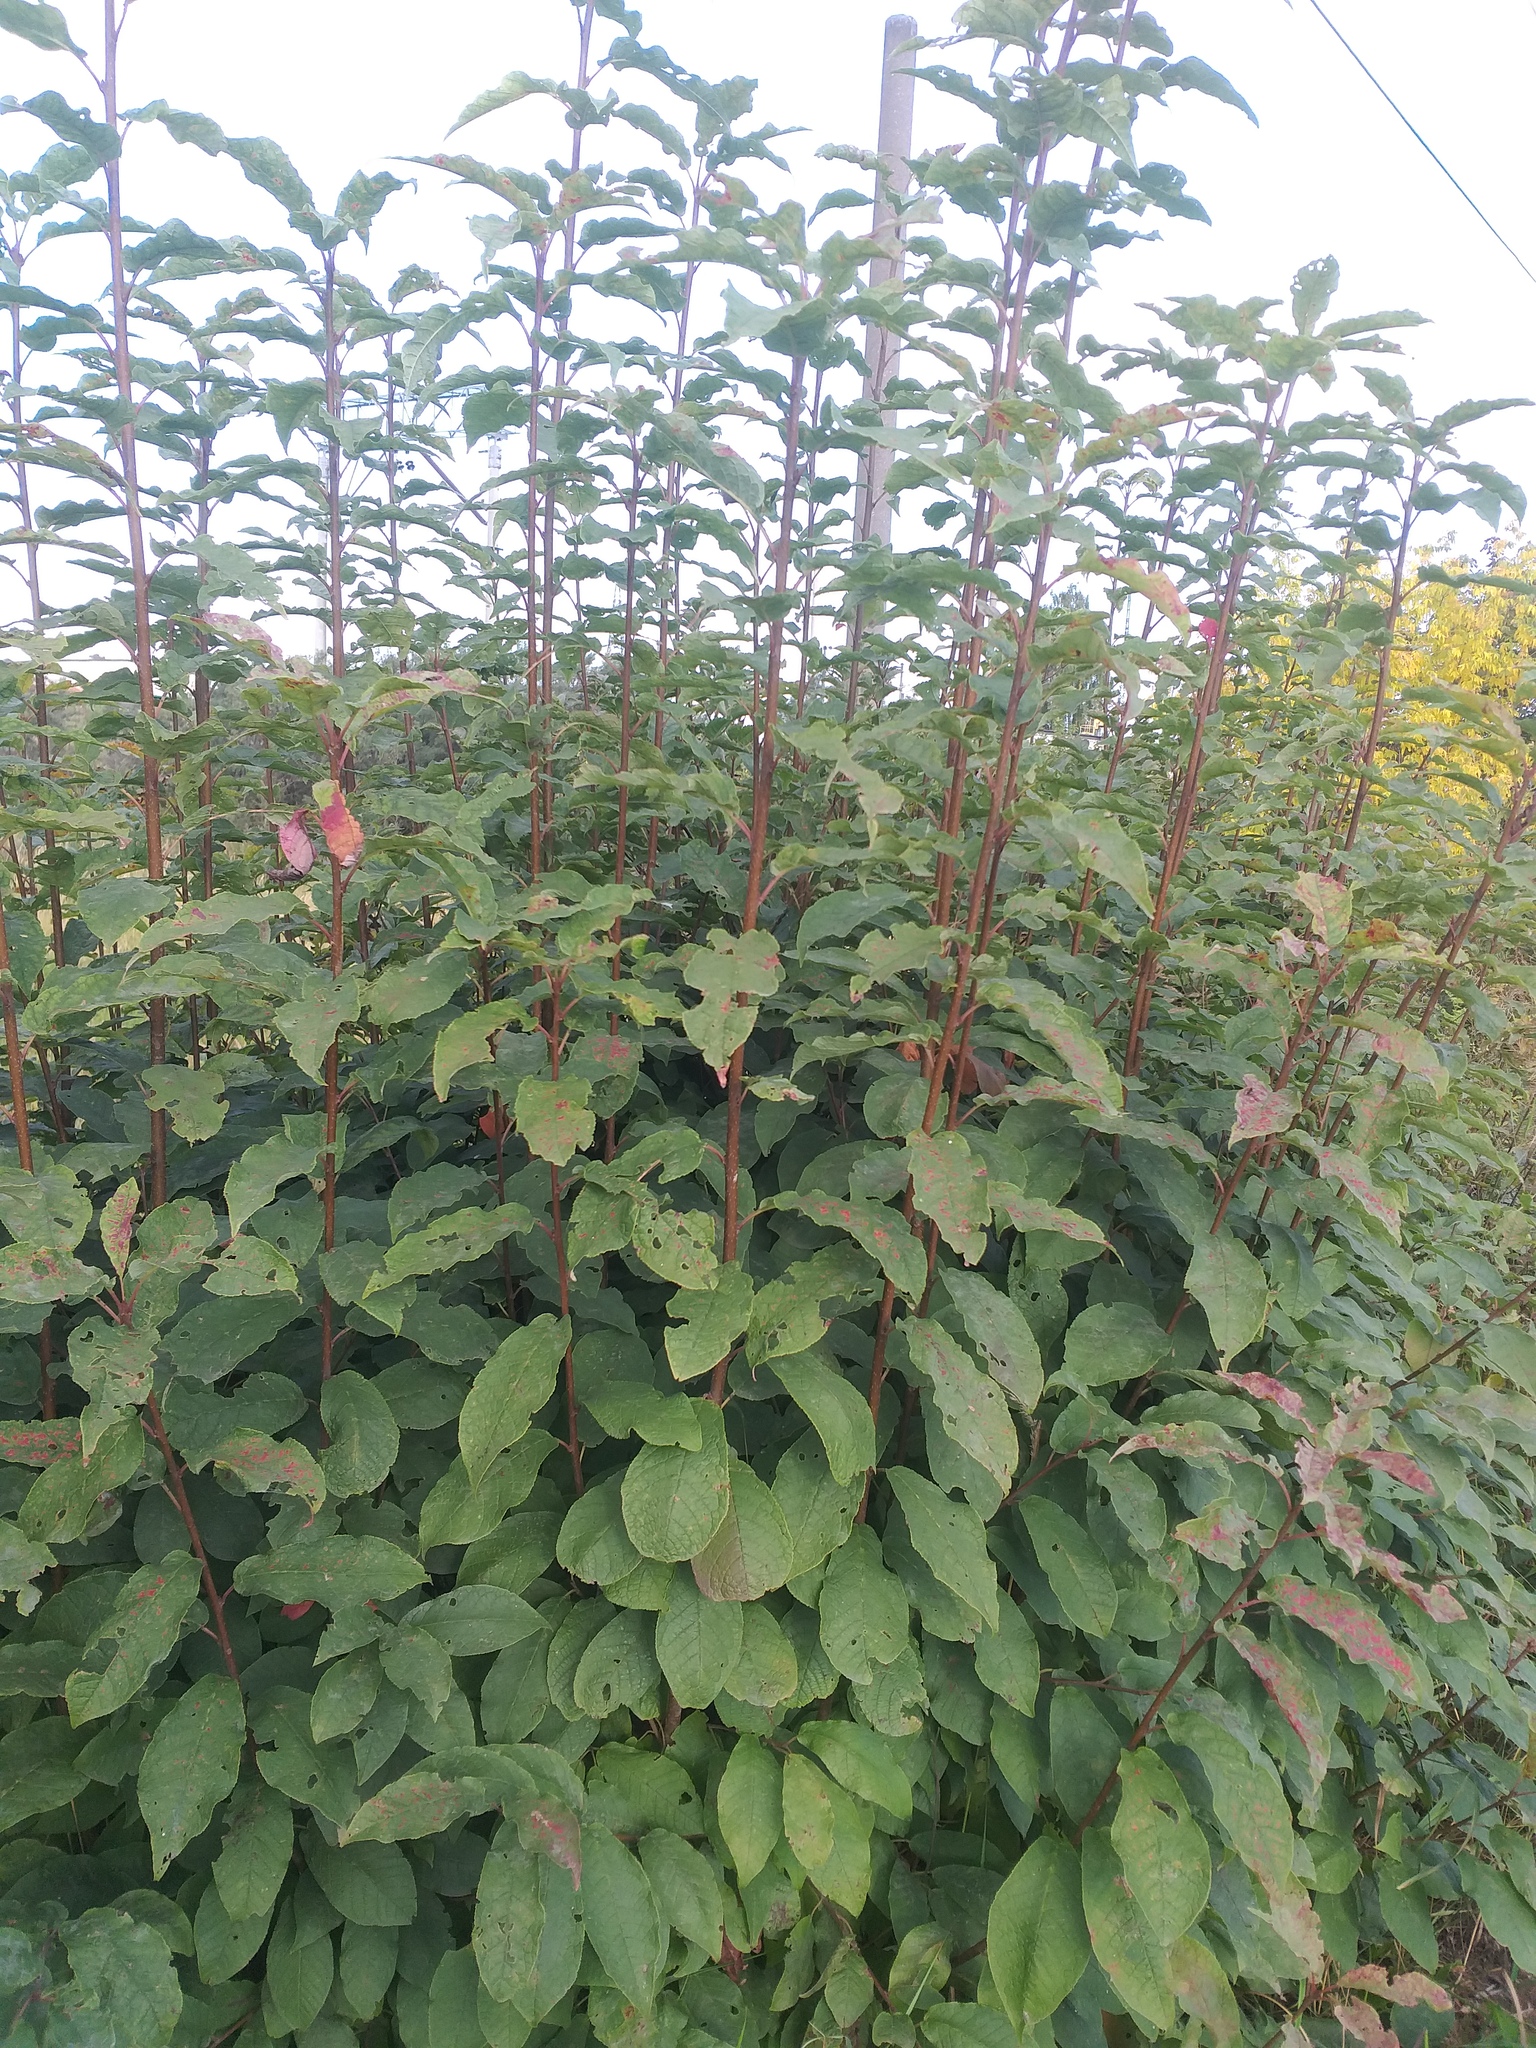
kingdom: Plantae
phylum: Tracheophyta
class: Magnoliopsida
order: Rosales
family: Rosaceae
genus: Prunus
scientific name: Prunus padus
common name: Bird cherry
